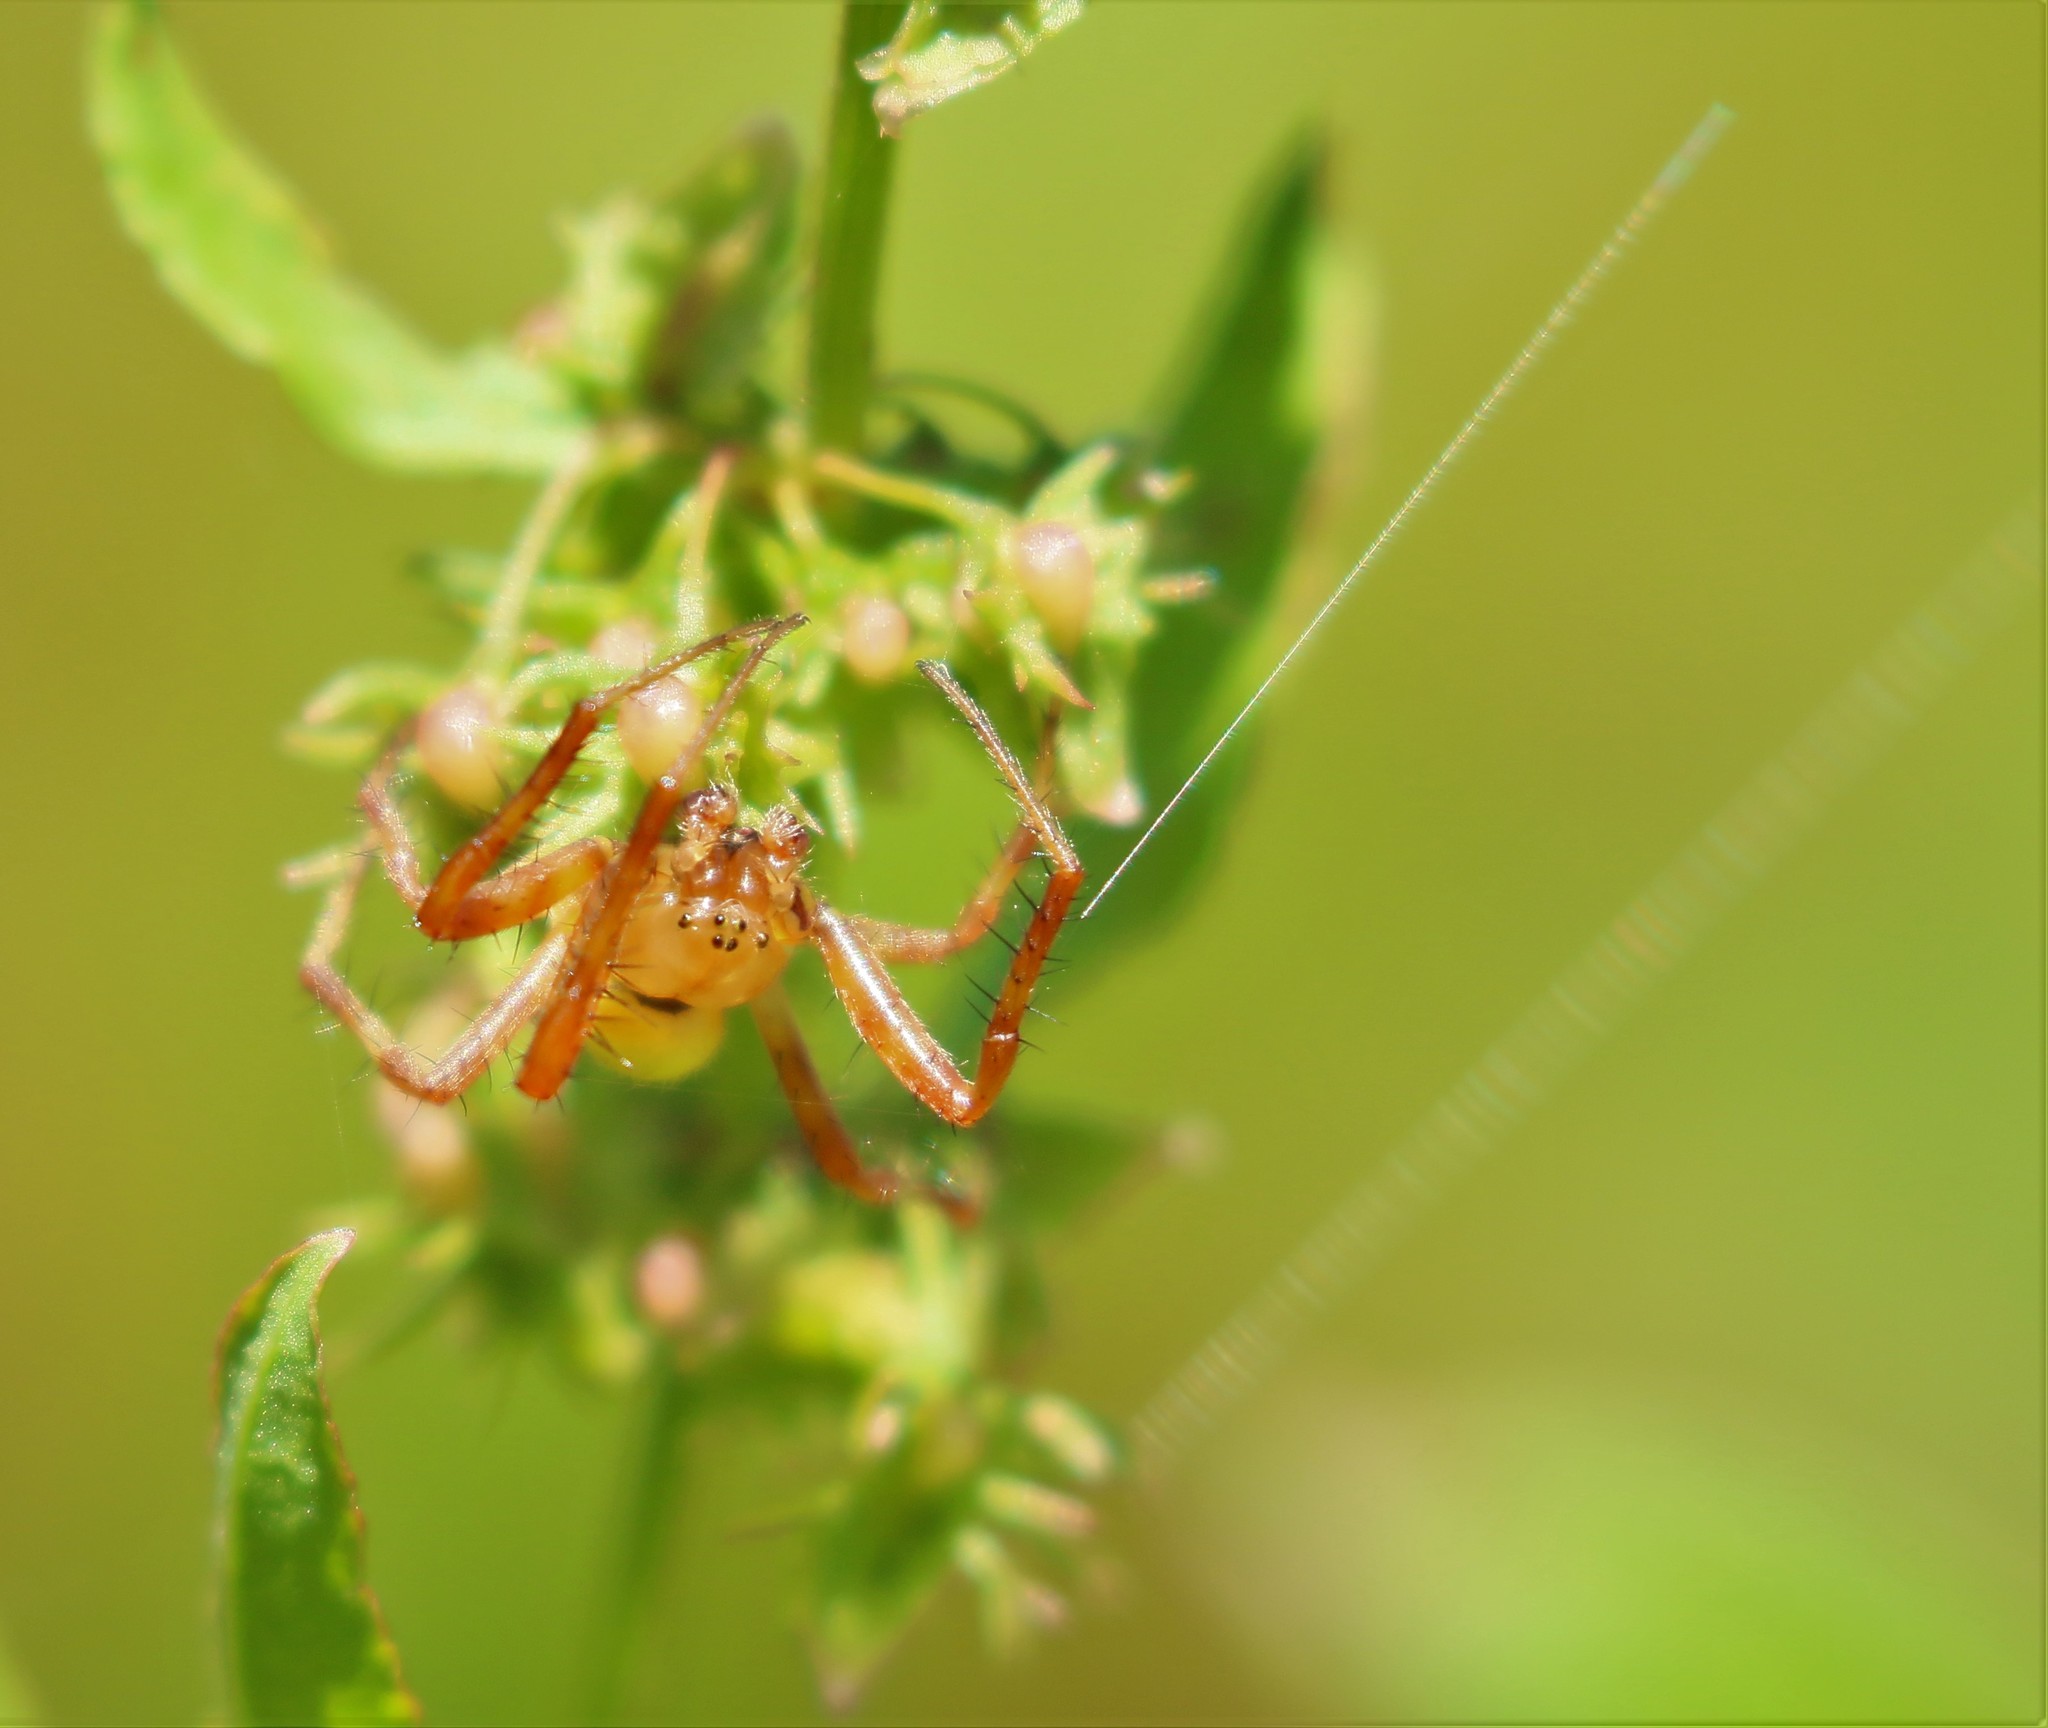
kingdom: Animalia
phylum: Arthropoda
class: Arachnida
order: Araneae
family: Araneidae
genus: Araneus
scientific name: Araneus trifolium
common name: Shamrock orbweaver
